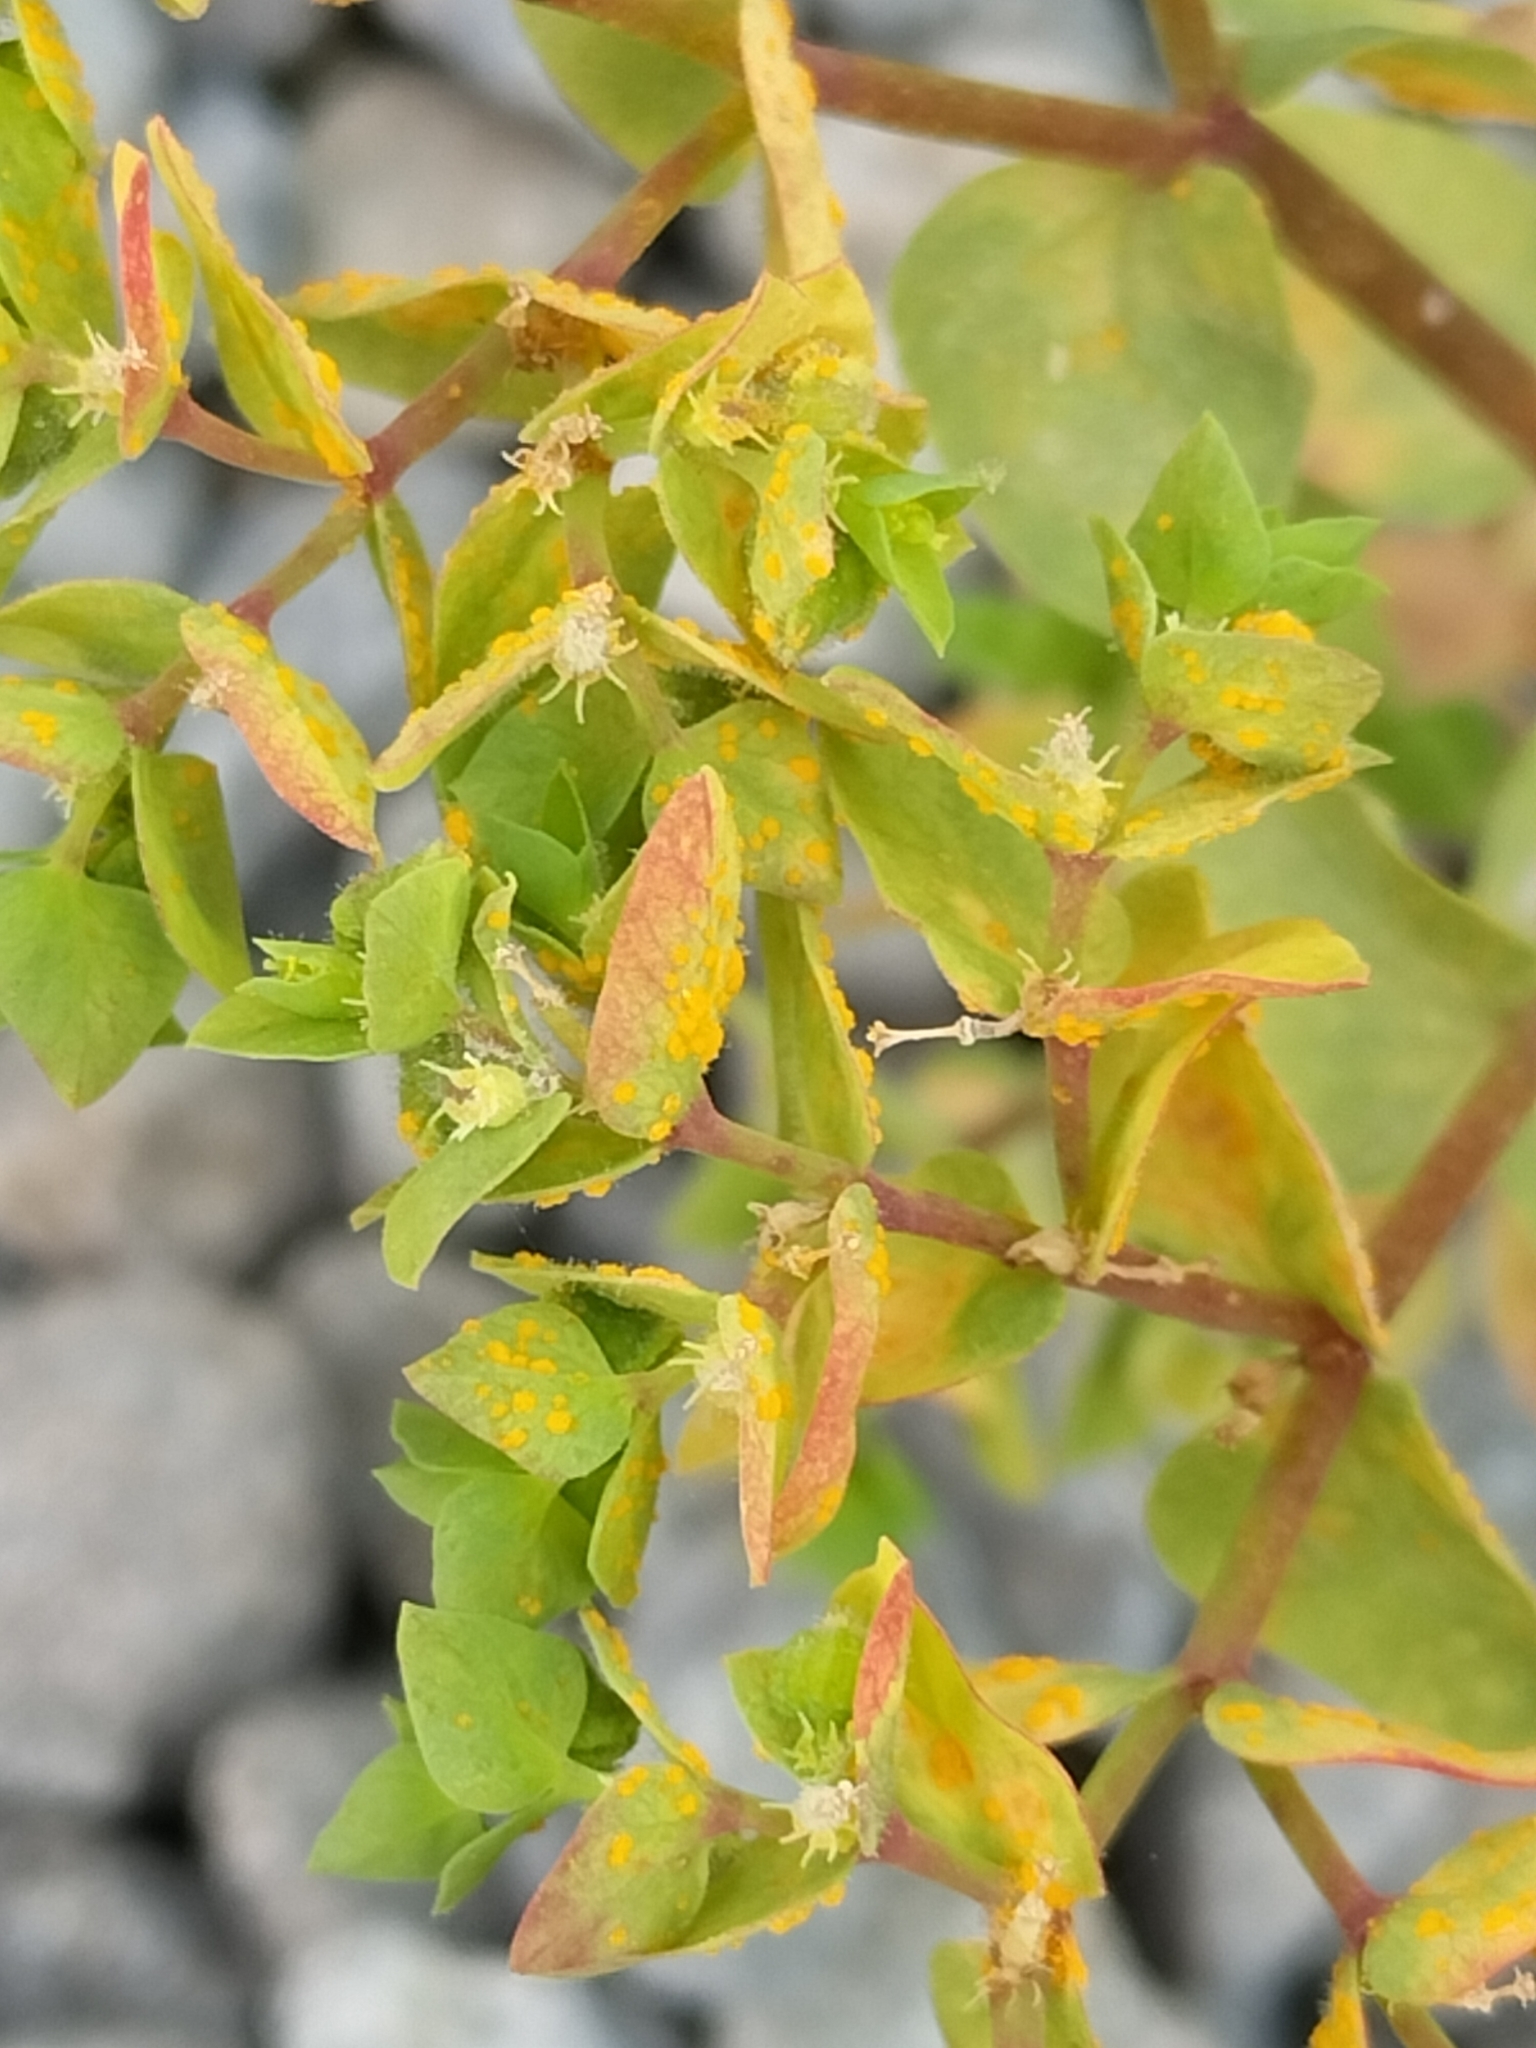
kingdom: Fungi
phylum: Basidiomycota
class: Pucciniomycetes
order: Pucciniales
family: Melampsoraceae
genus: Melampsora
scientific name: Melampsora euphorbiae
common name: Spurge rust
